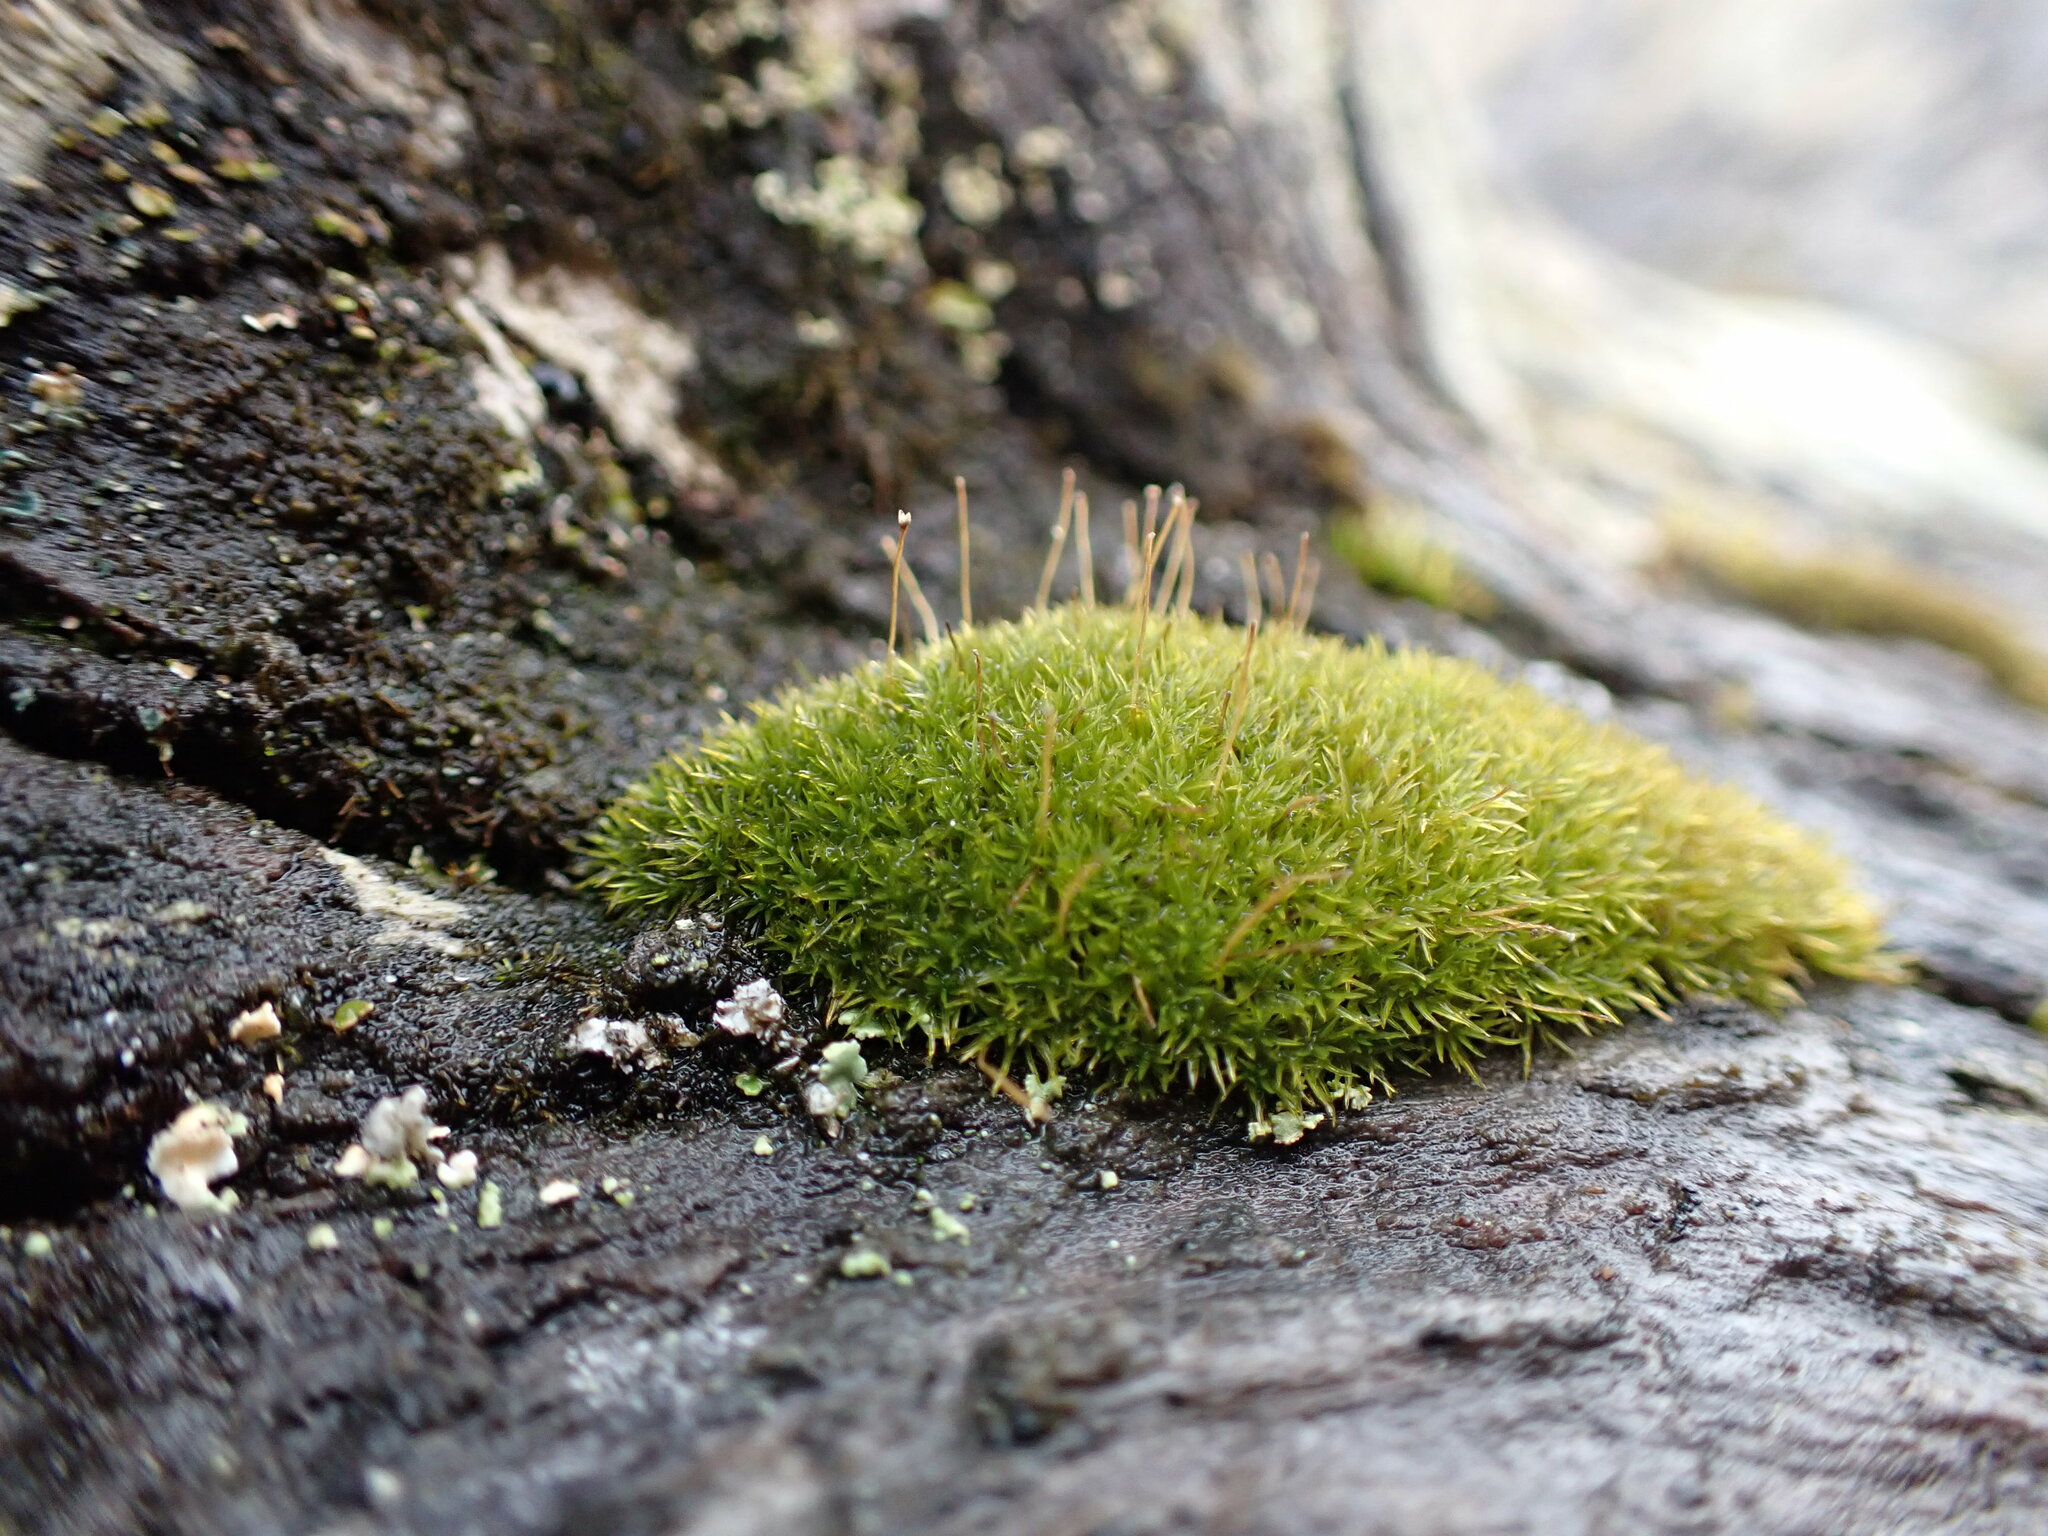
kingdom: Plantae
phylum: Bryophyta
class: Bryopsida
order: Dicranales
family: Rhabdoweisiaceae
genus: Dicranoweisia
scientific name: Dicranoweisia cirrata
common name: Common pincushion
